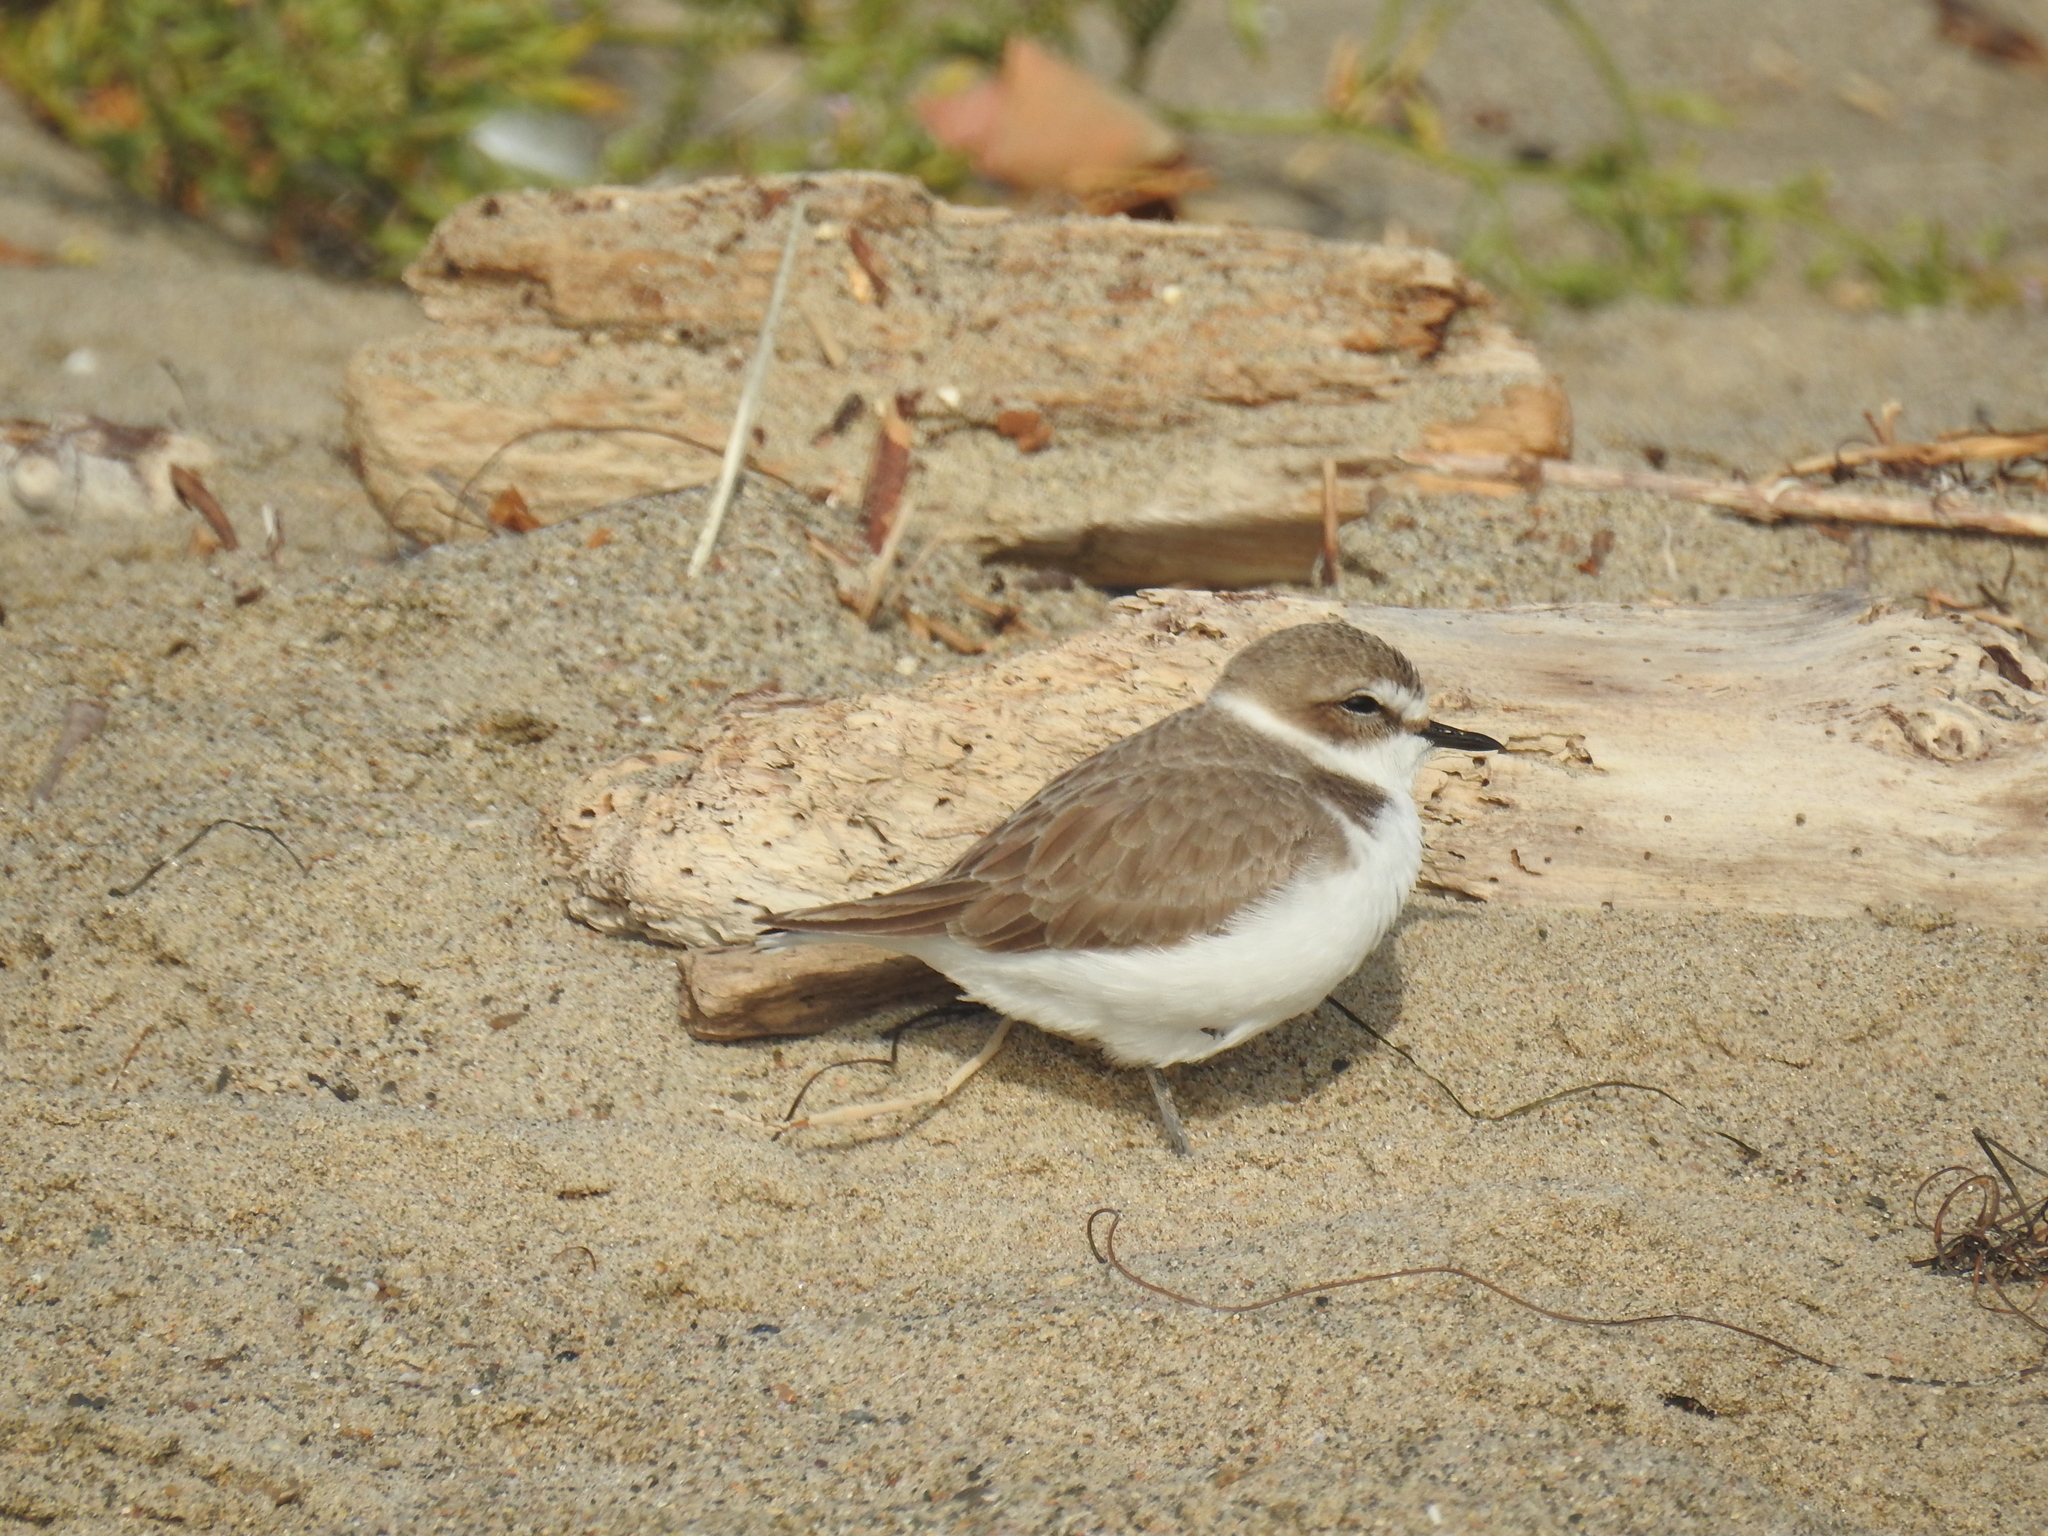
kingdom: Animalia
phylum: Chordata
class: Aves
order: Charadriiformes
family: Charadriidae
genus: Anarhynchus
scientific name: Anarhynchus
